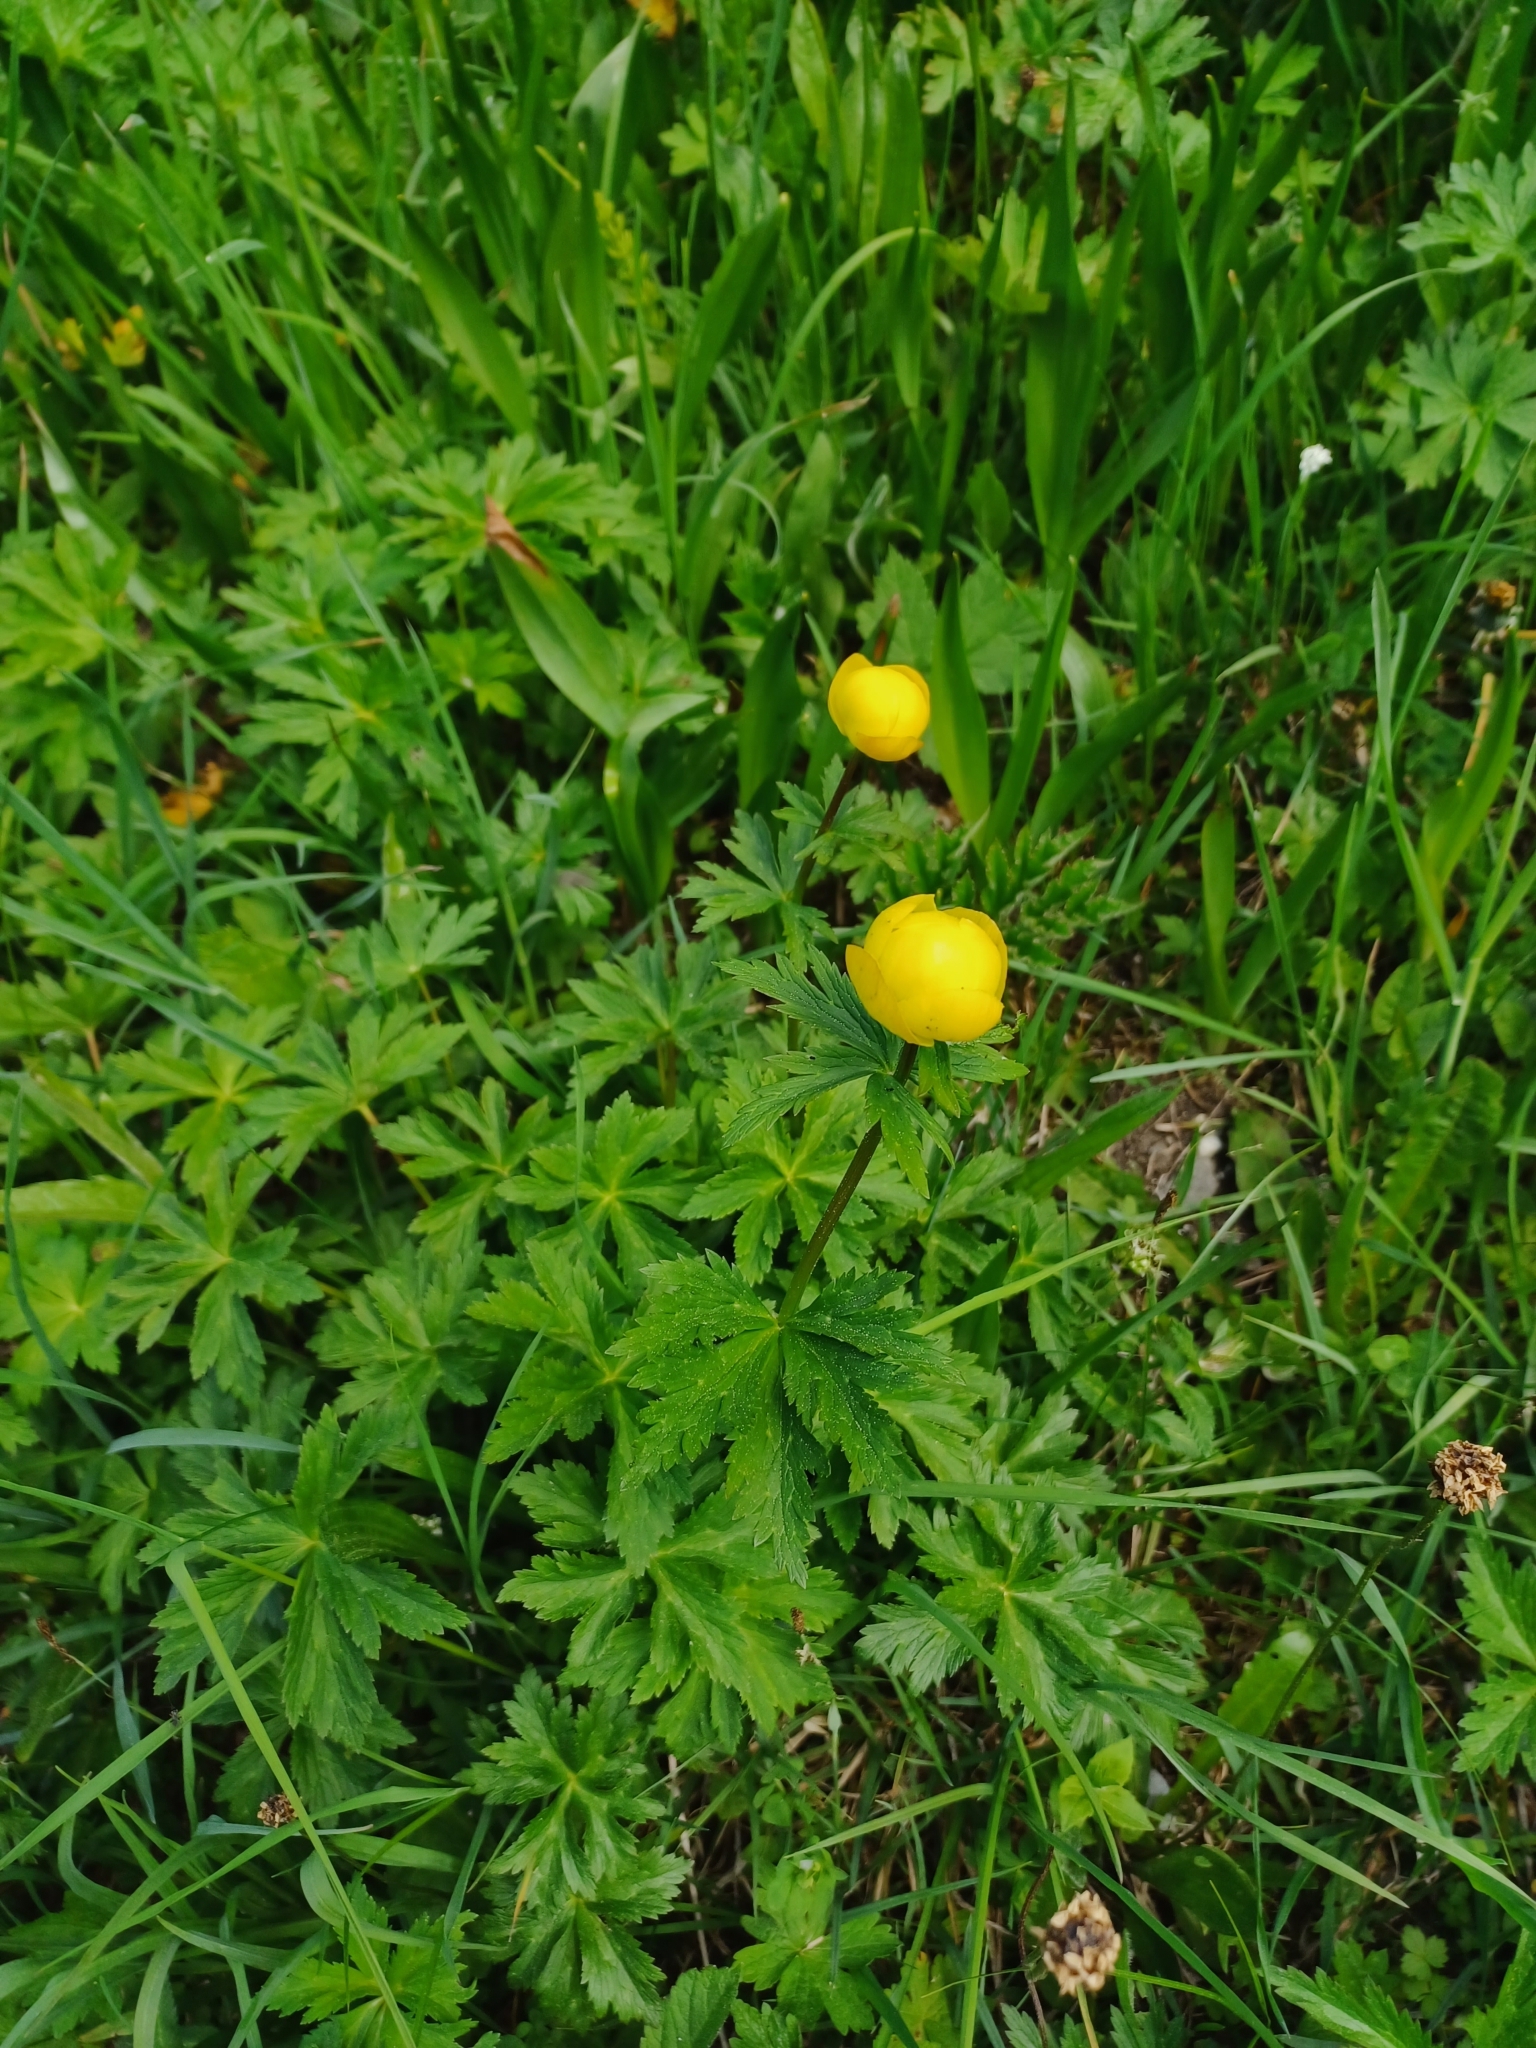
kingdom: Plantae
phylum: Tracheophyta
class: Magnoliopsida
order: Ranunculales
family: Ranunculaceae
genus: Trollius
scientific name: Trollius europaeus
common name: European globeflower
